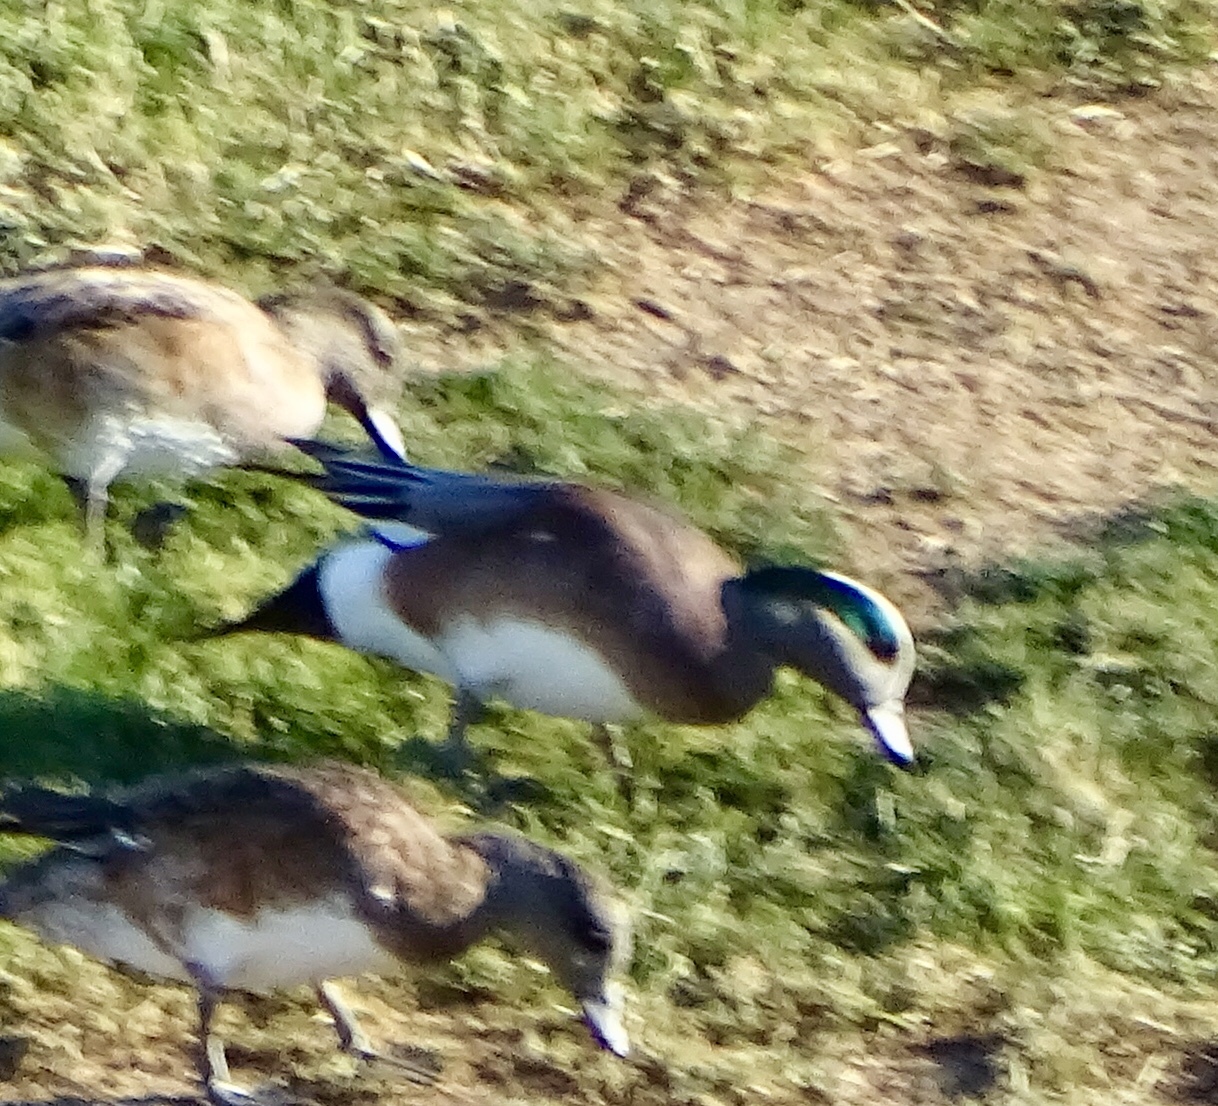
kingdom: Animalia
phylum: Chordata
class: Aves
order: Anseriformes
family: Anatidae
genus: Mareca
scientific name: Mareca americana
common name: American wigeon
